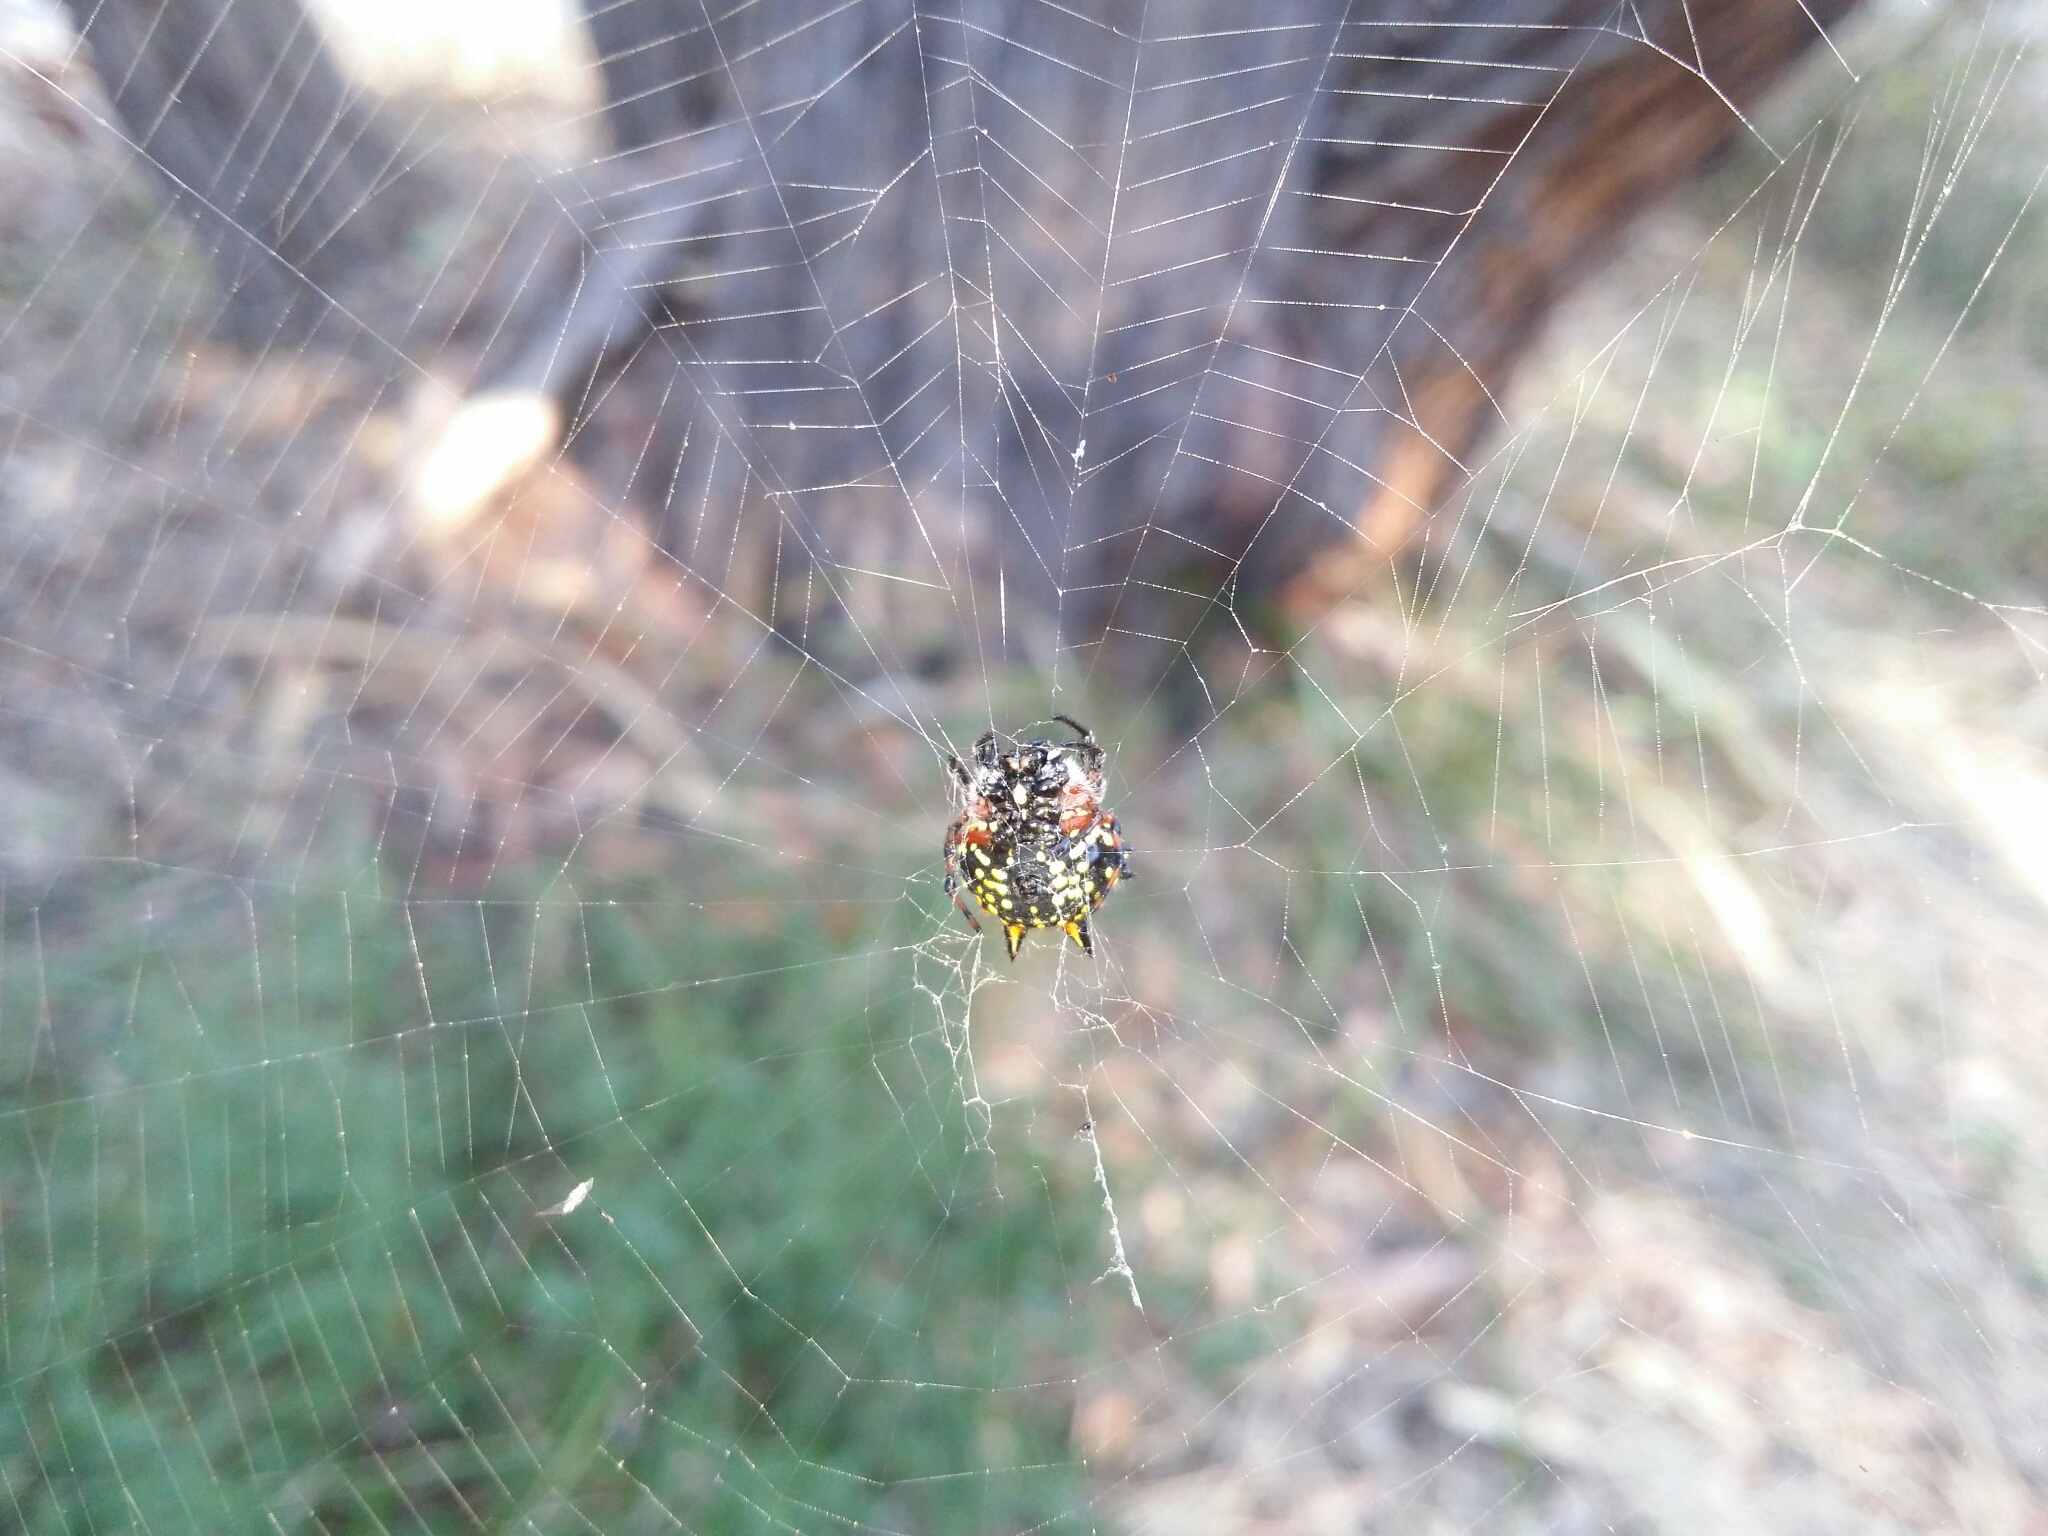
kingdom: Animalia
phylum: Arthropoda
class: Arachnida
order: Araneae
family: Araneidae
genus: Austracantha
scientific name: Austracantha minax
